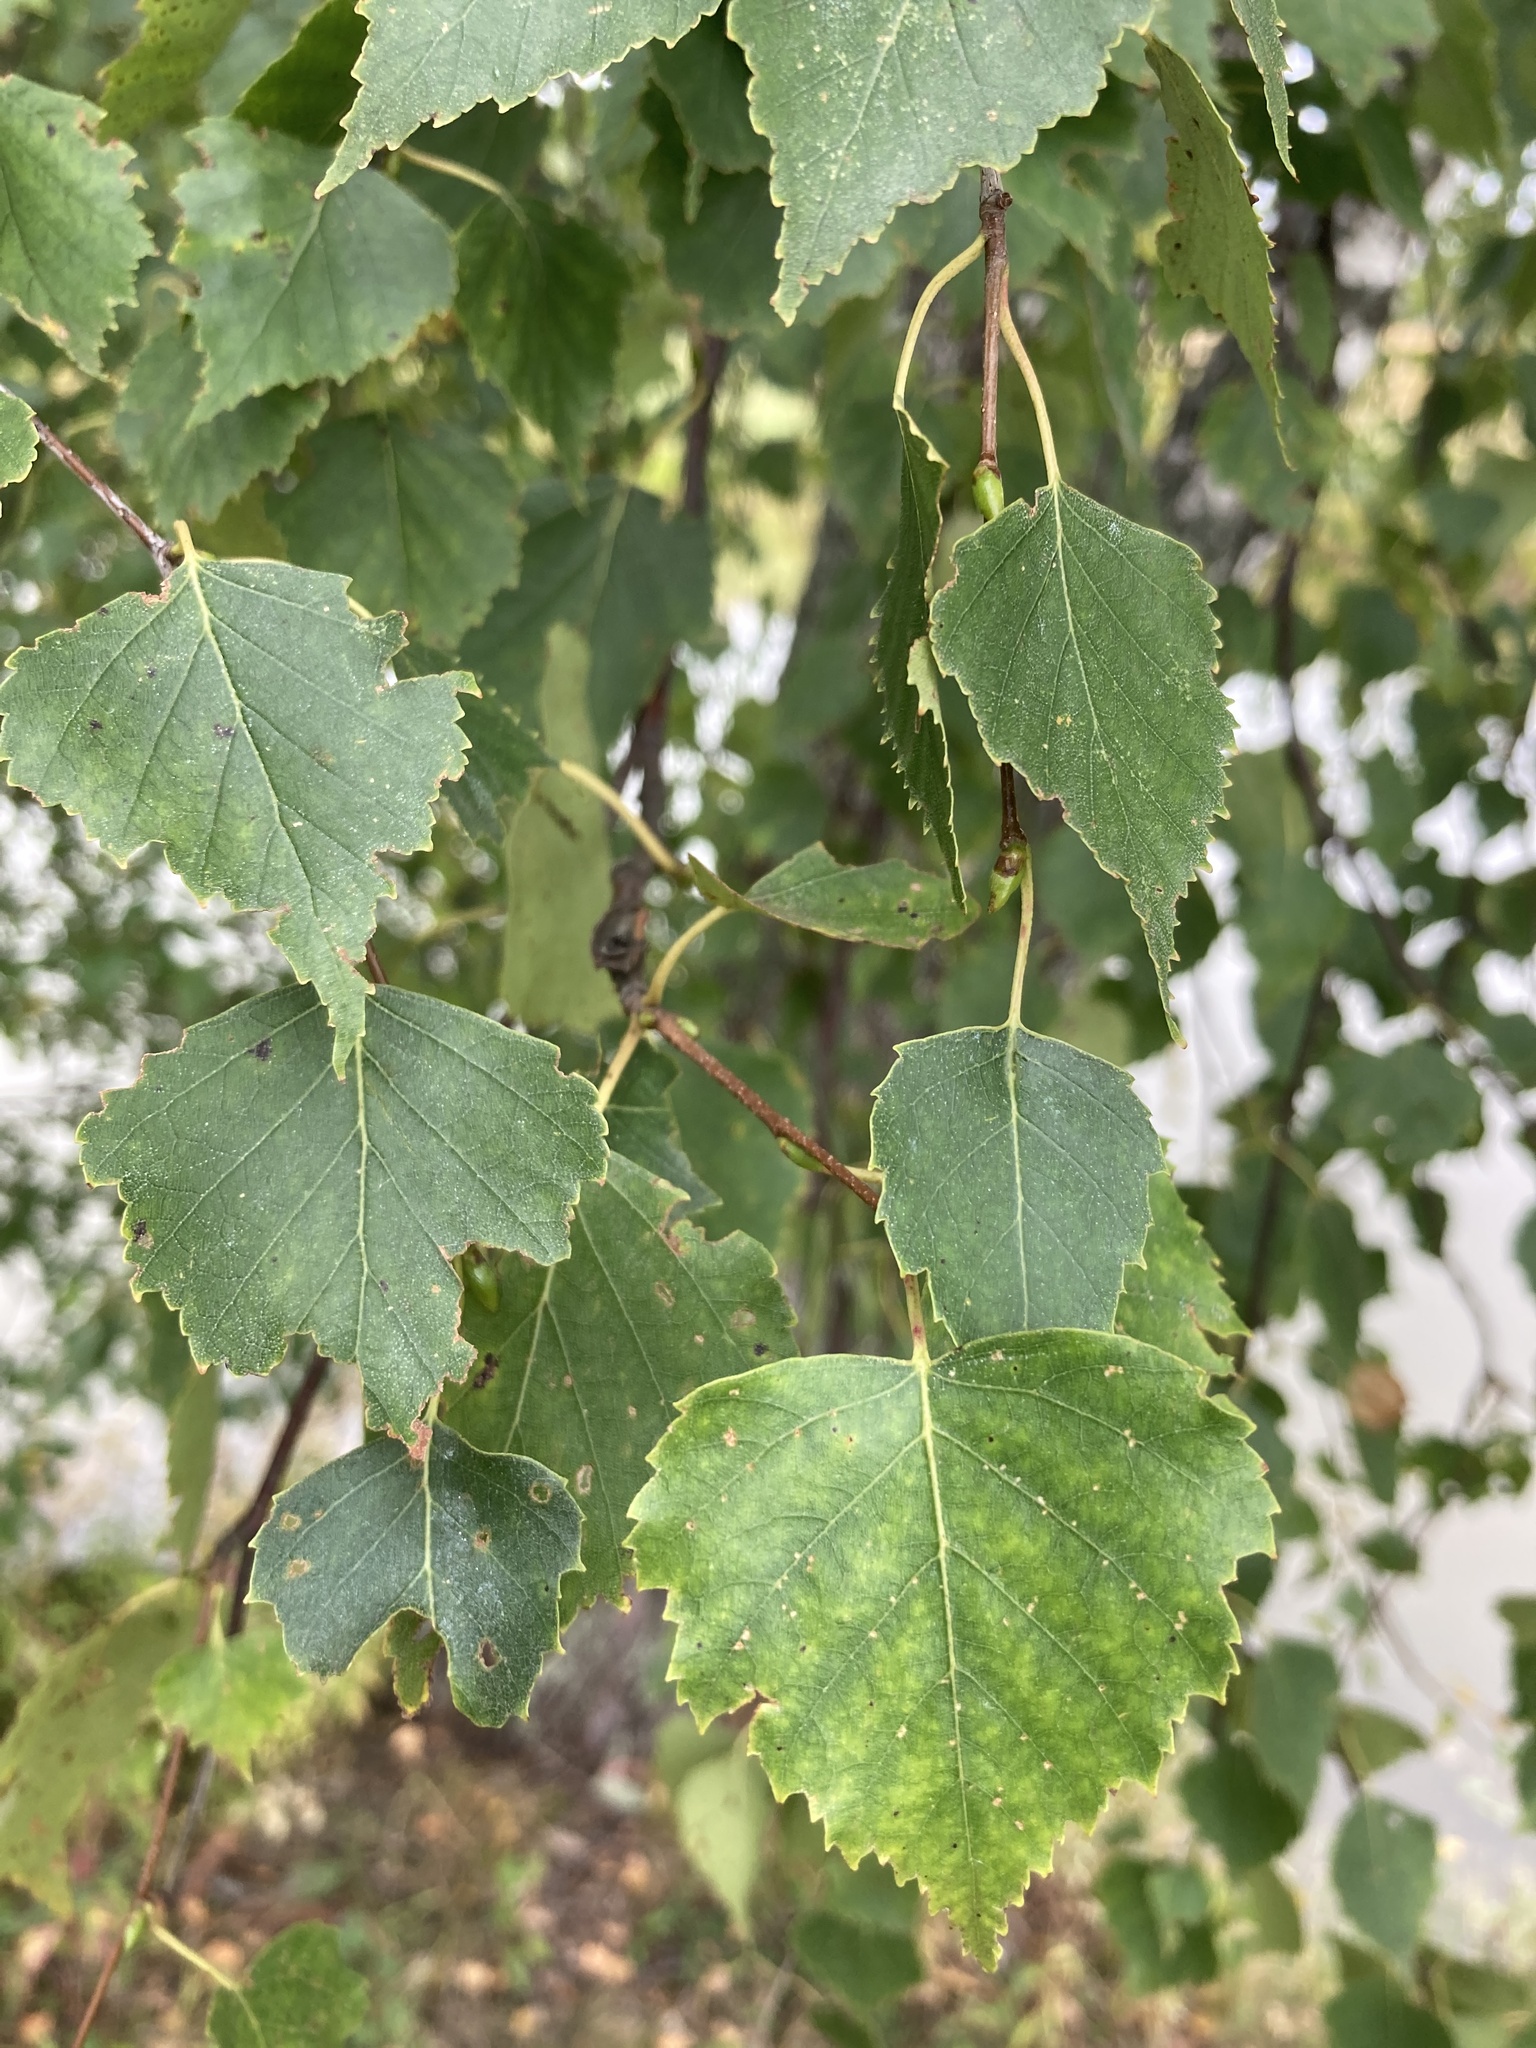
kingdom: Plantae
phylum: Tracheophyta
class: Magnoliopsida
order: Fagales
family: Betulaceae
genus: Betula
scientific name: Betula pendula
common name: Silver birch
